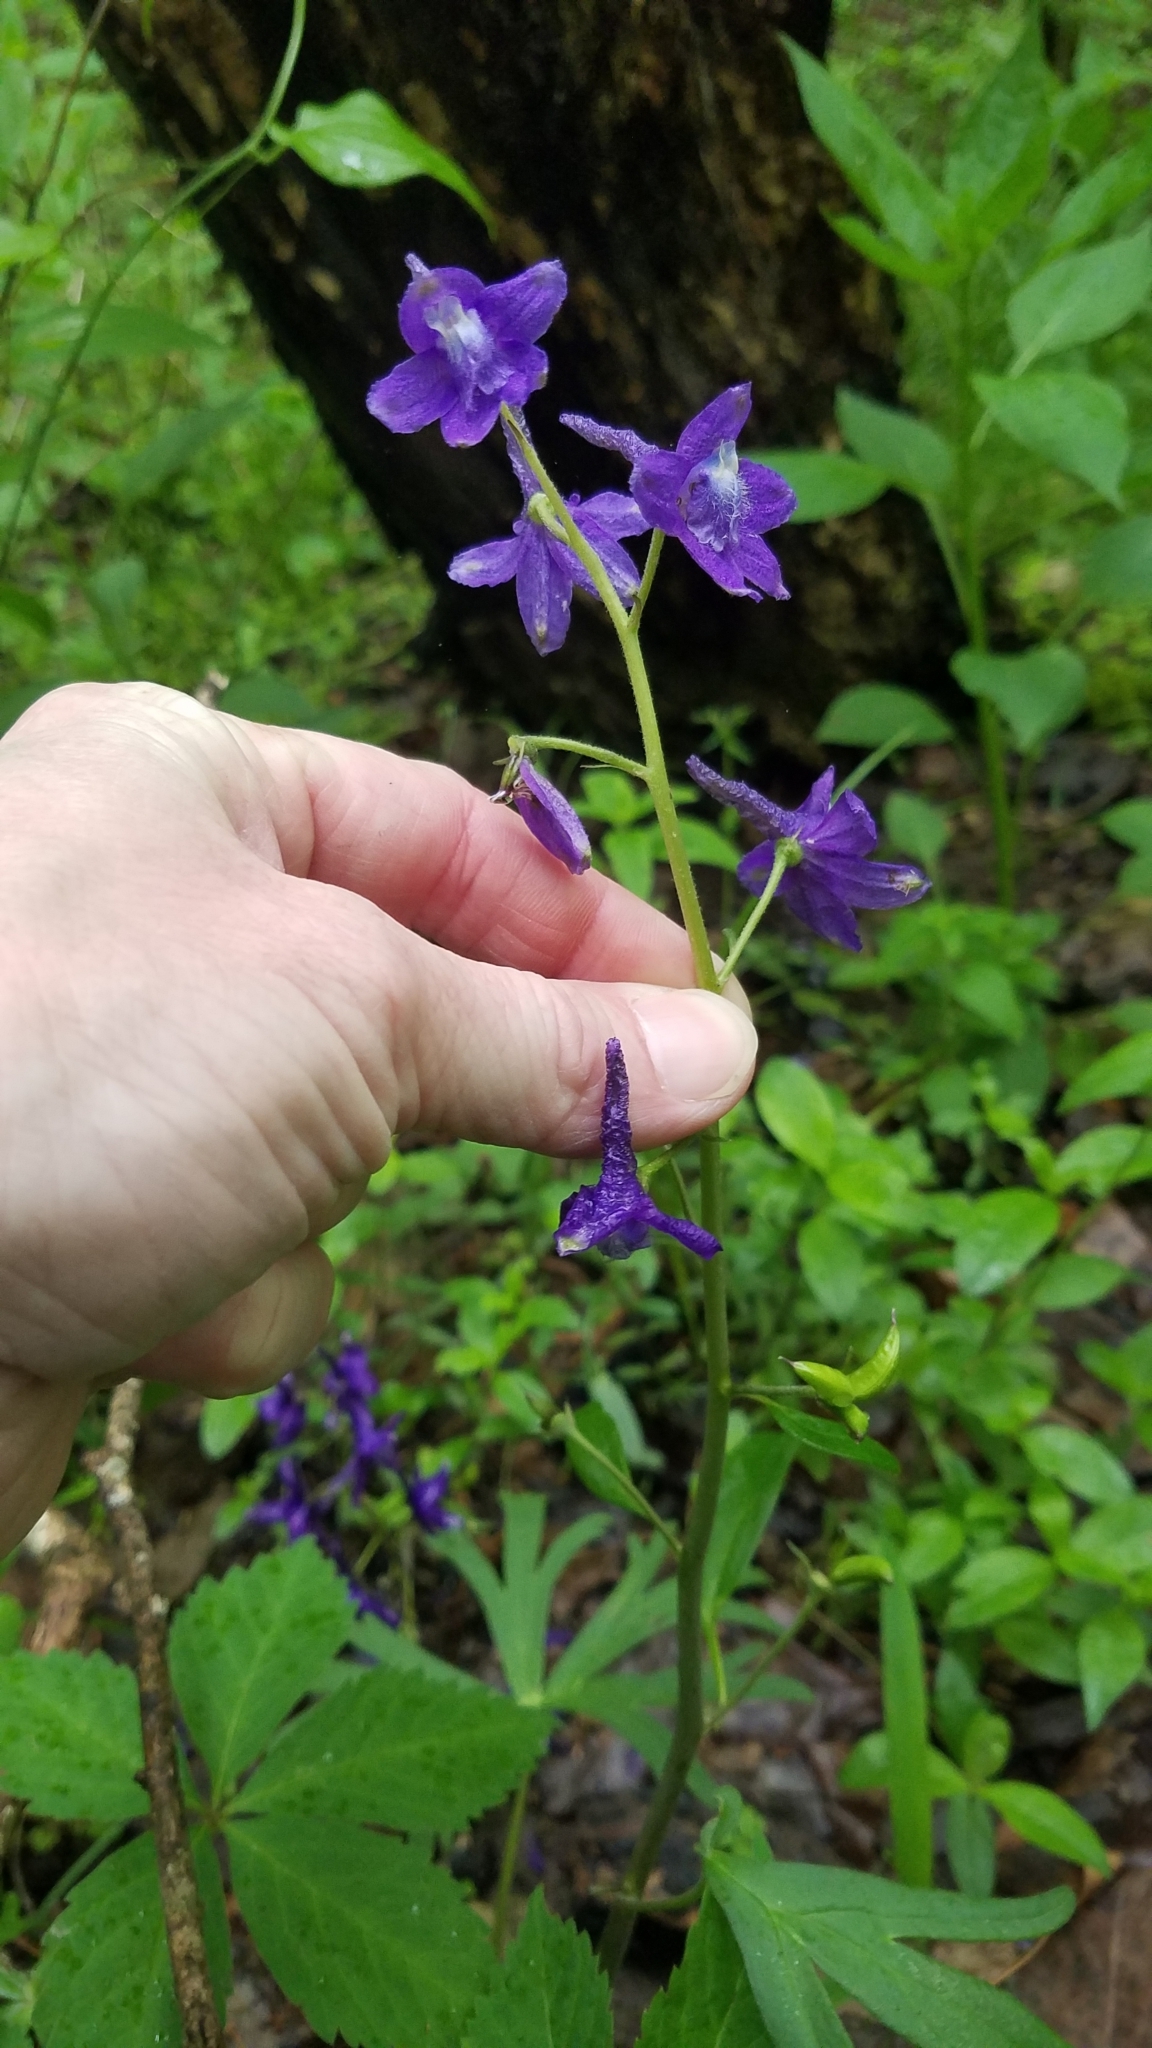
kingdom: Plantae
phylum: Tracheophyta
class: Magnoliopsida
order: Ranunculales
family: Ranunculaceae
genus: Delphinium
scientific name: Delphinium tricorne
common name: Dwarf larkspur
